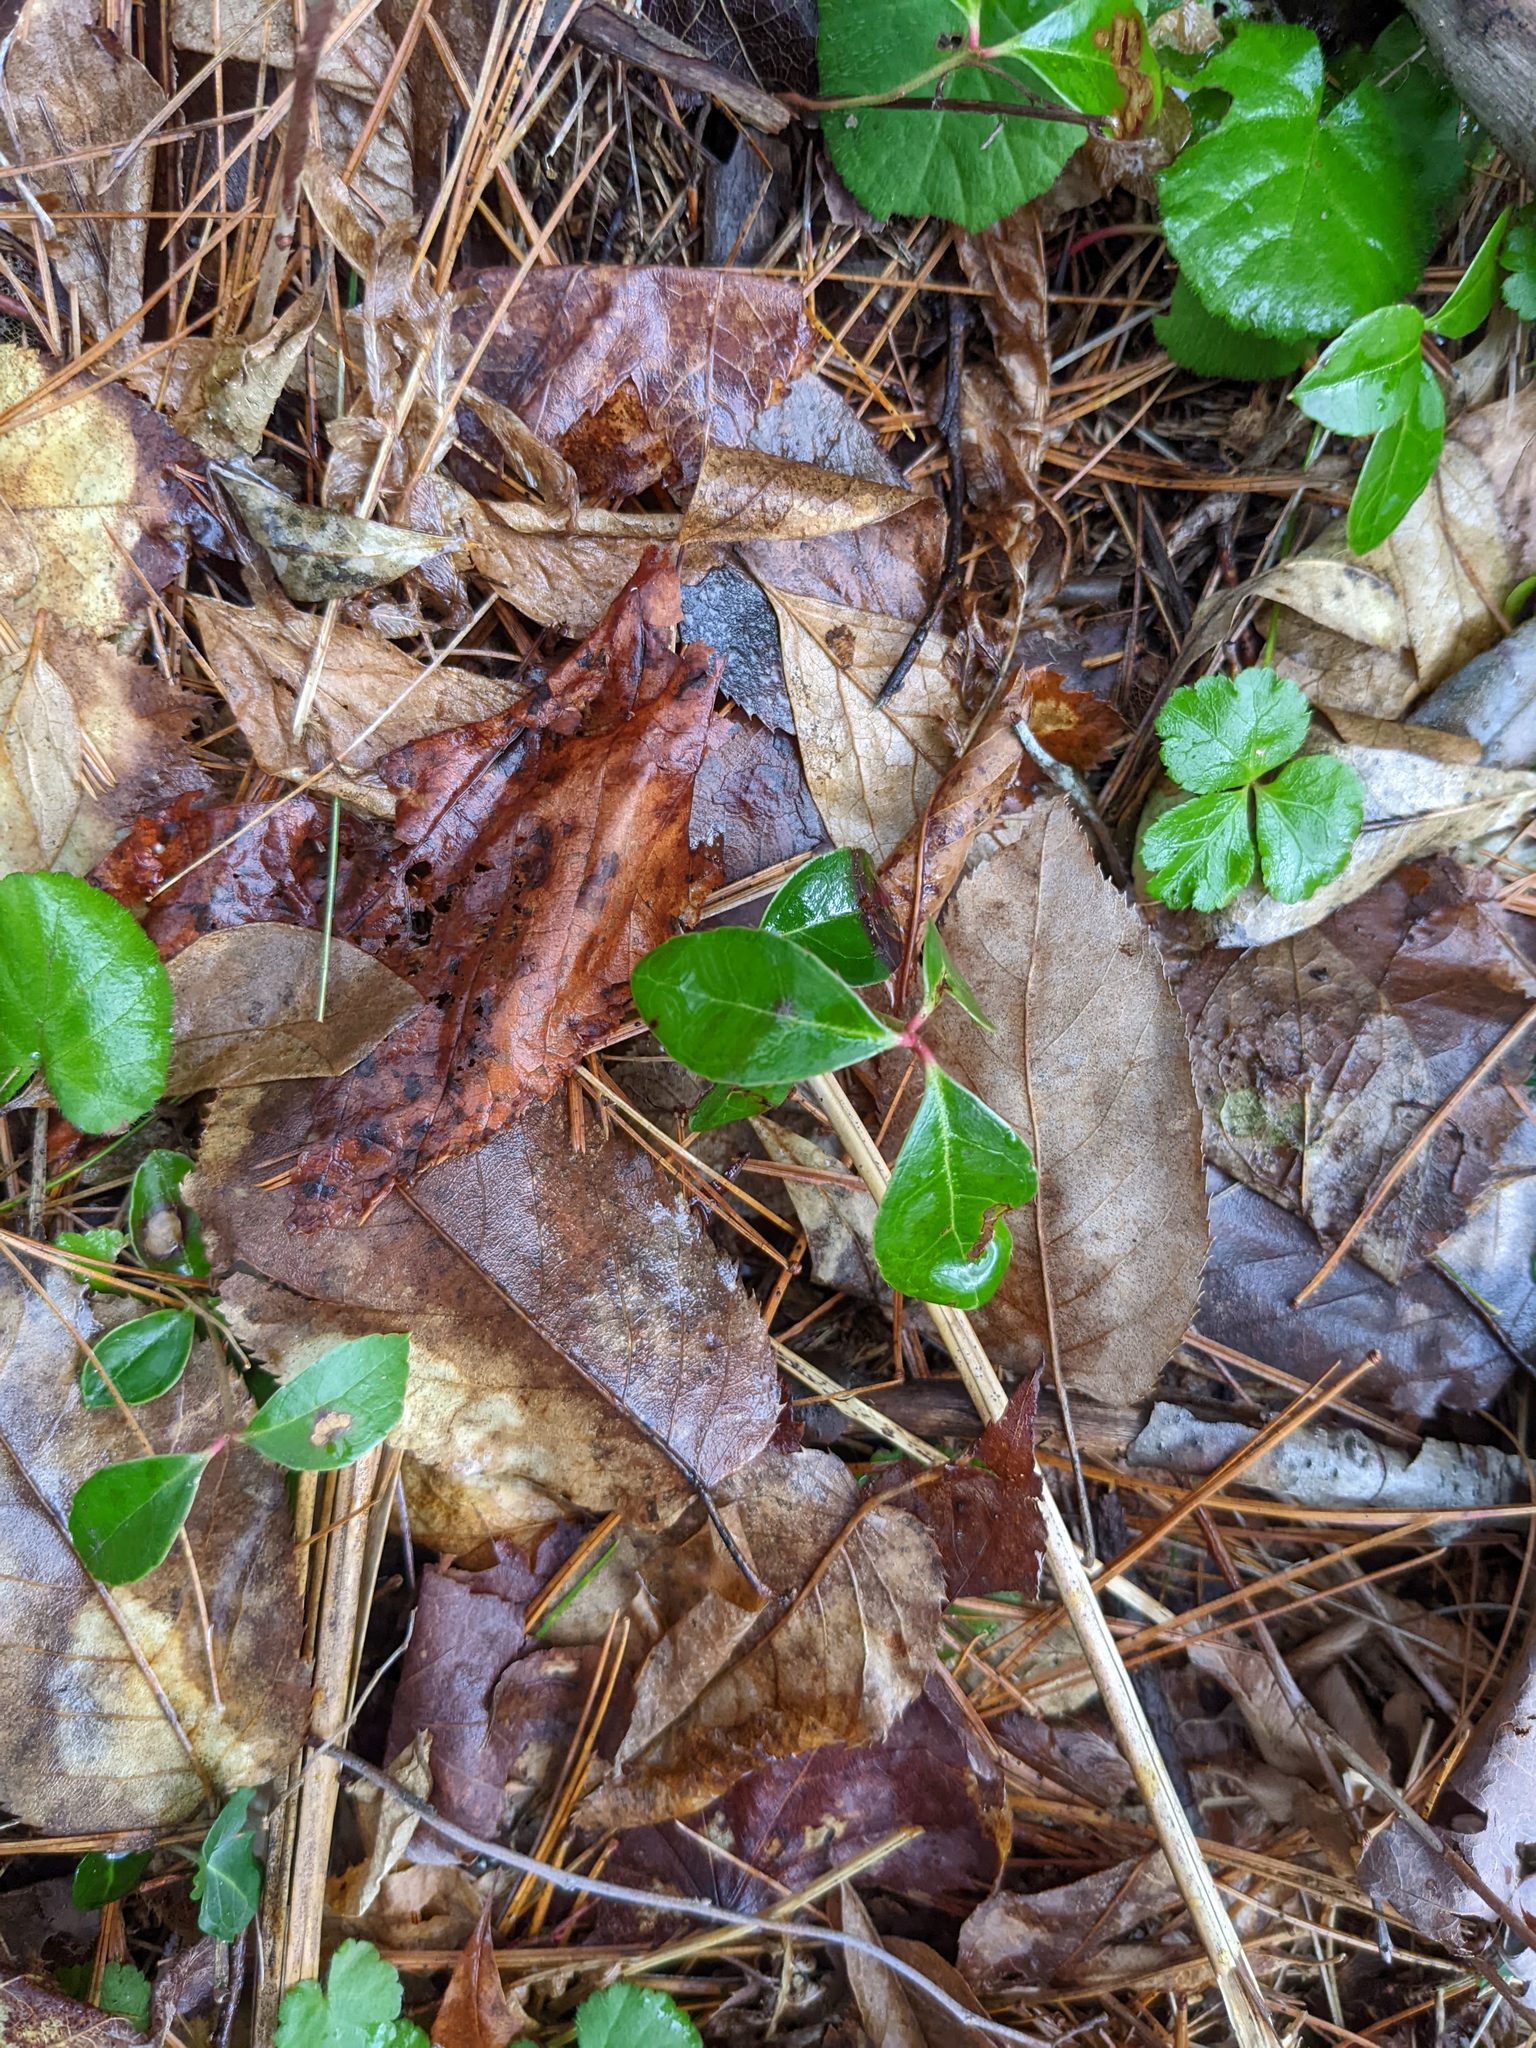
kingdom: Plantae
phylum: Tracheophyta
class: Magnoliopsida
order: Ericales
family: Ericaceae
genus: Gaultheria
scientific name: Gaultheria procumbens
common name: Checkerberry
